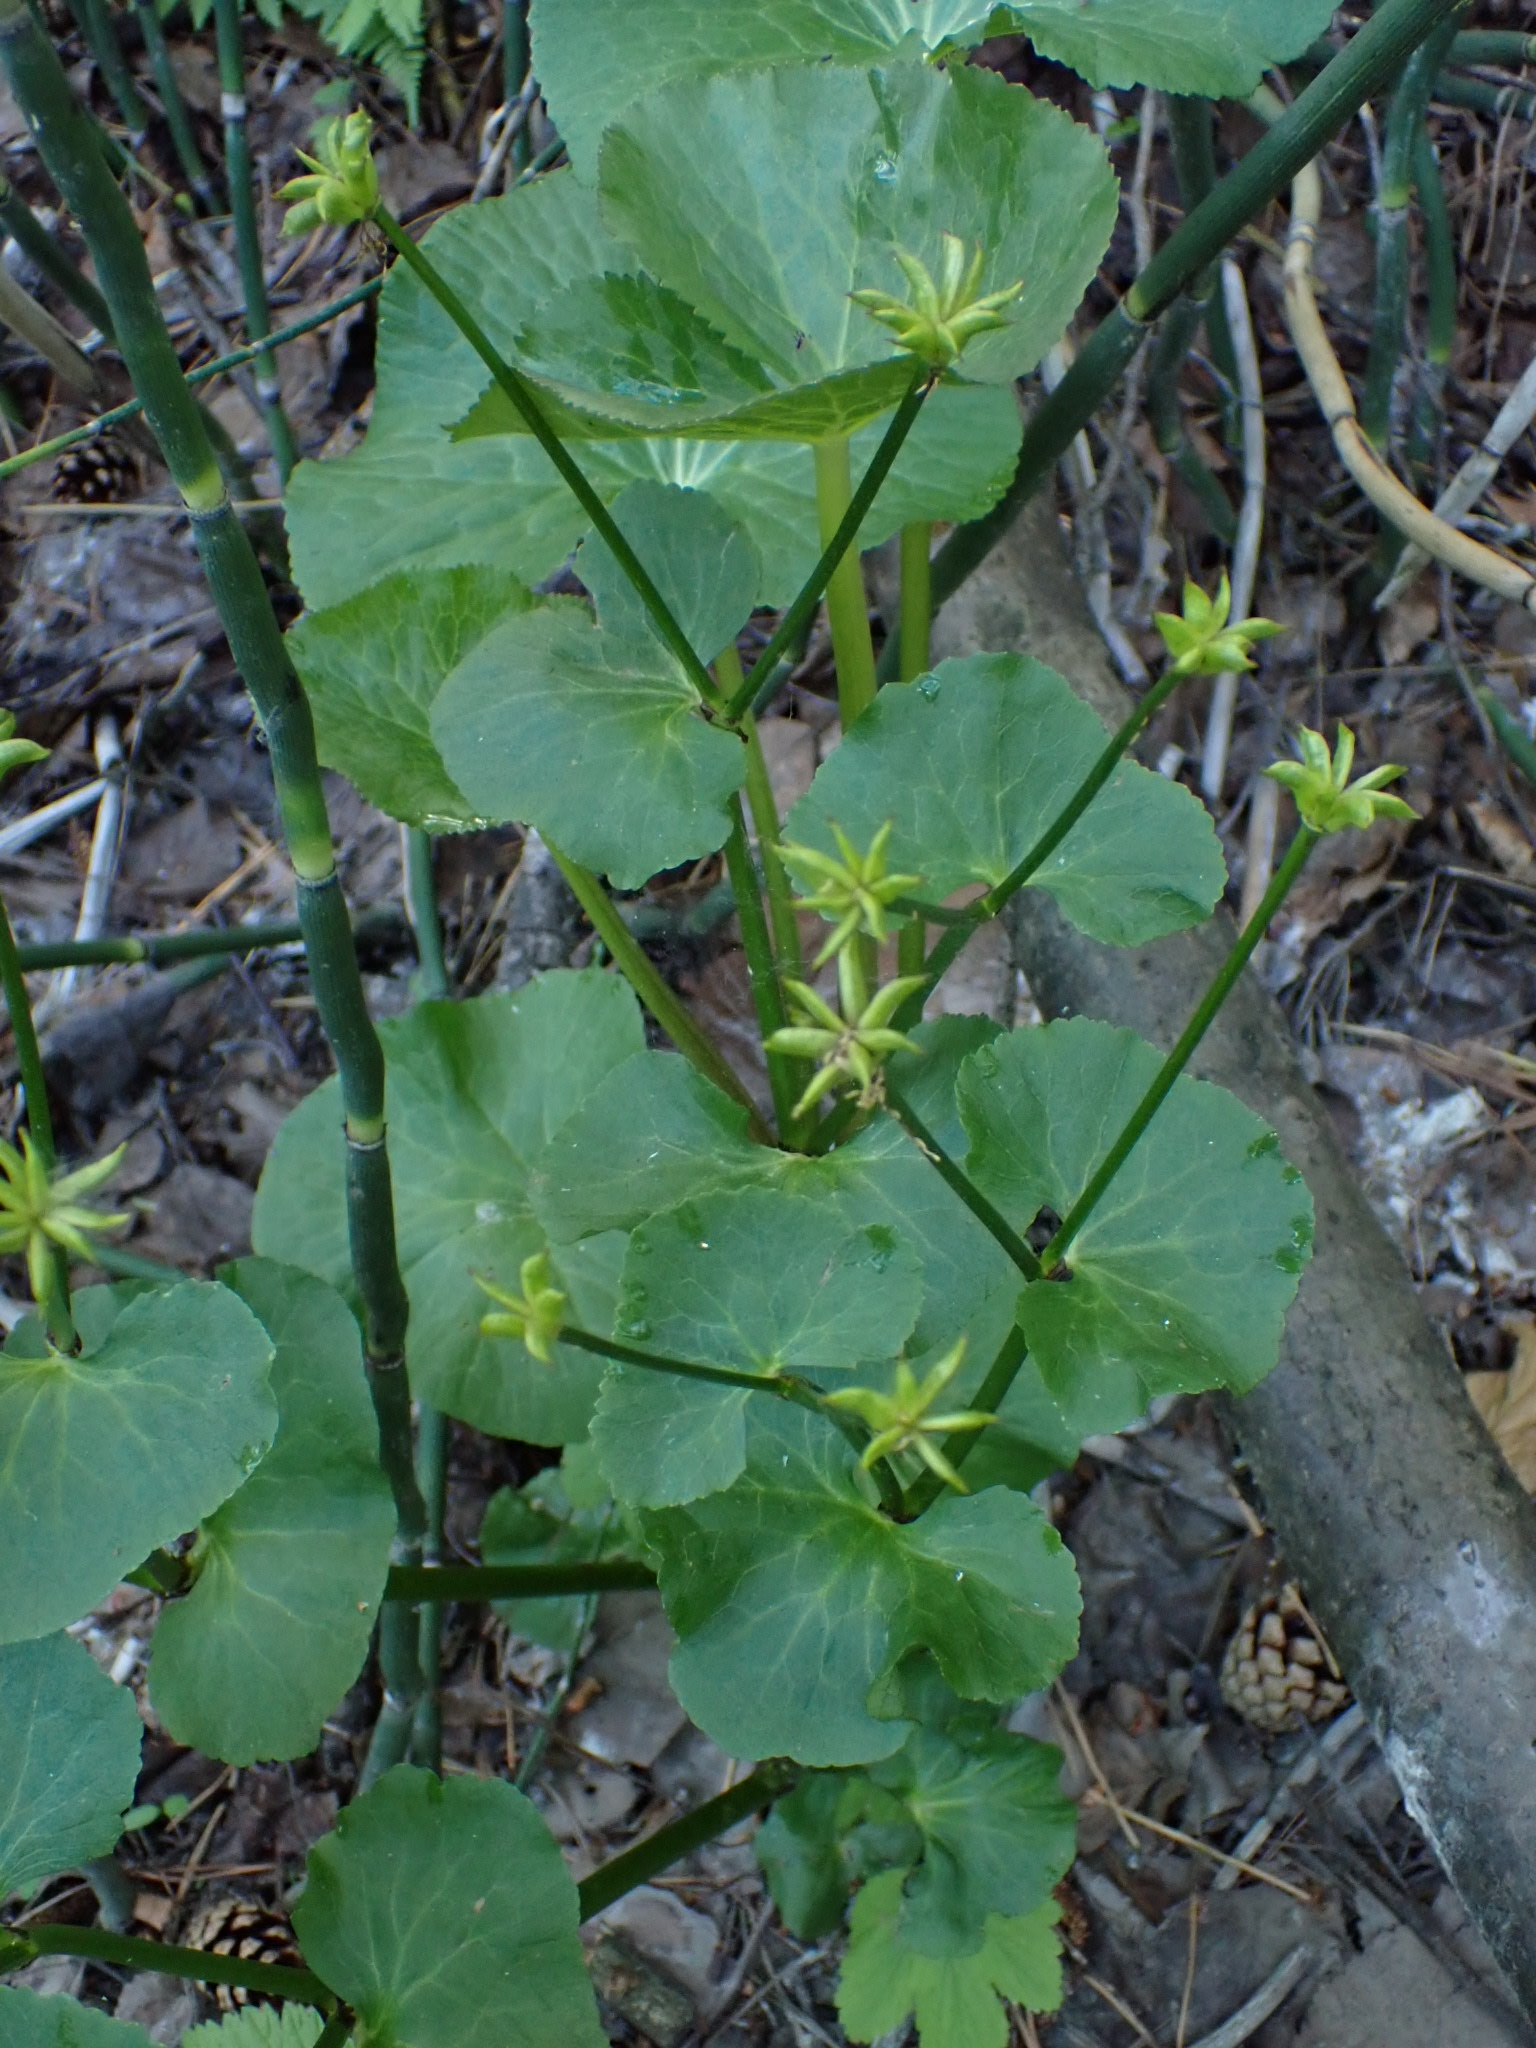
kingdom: Plantae
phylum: Tracheophyta
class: Magnoliopsida
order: Ranunculales
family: Ranunculaceae
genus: Caltha
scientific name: Caltha palustris
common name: Marsh marigold
